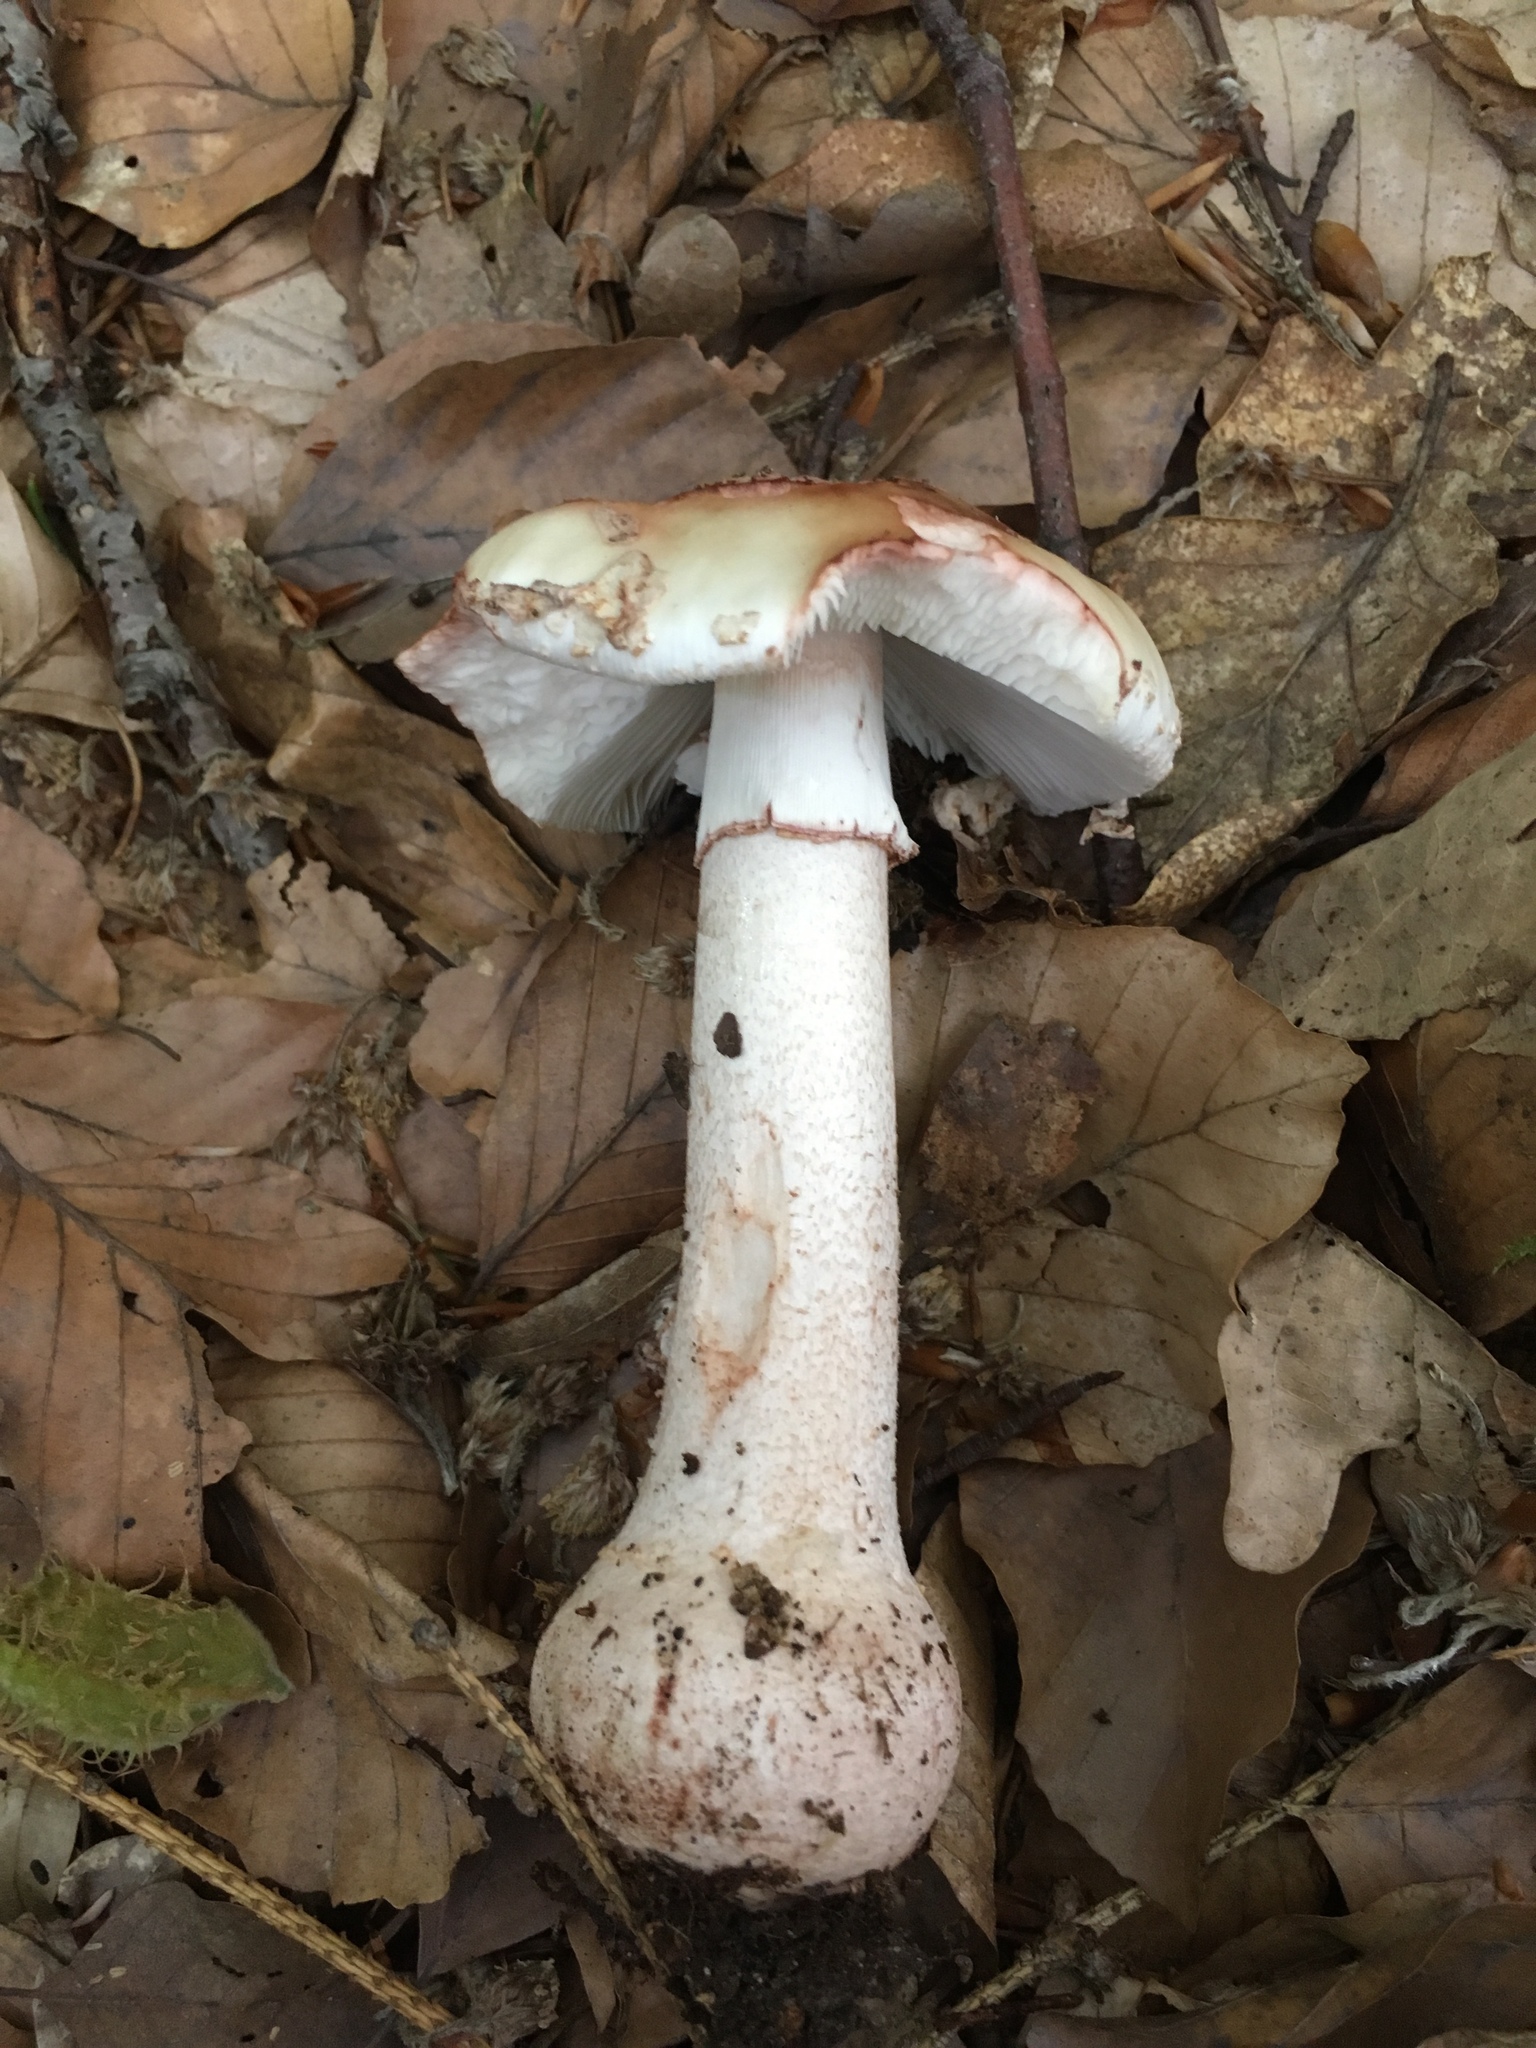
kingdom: Fungi
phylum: Basidiomycota
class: Agaricomycetes
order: Agaricales
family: Amanitaceae
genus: Amanita
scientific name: Amanita rubescens
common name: Blusher
